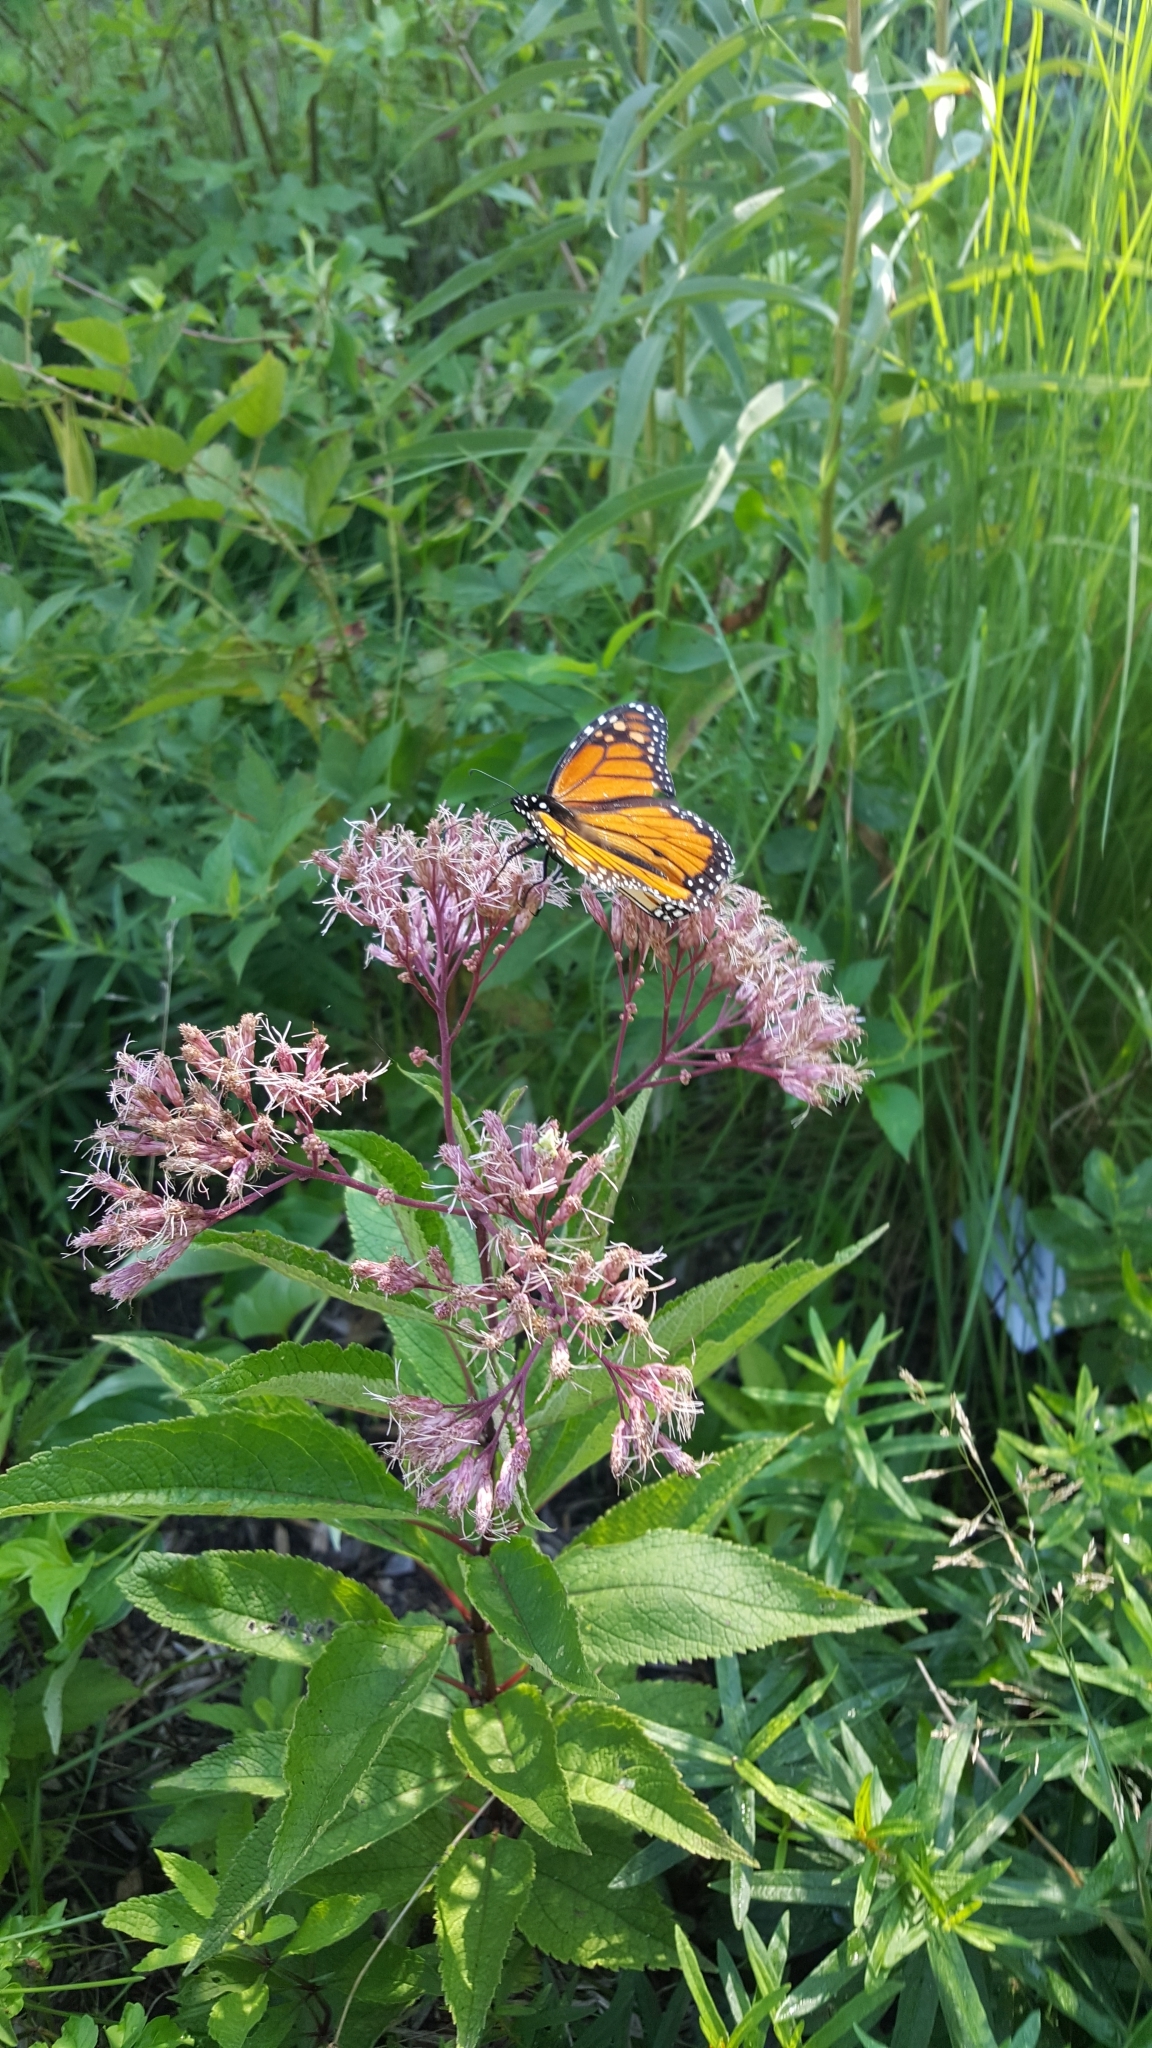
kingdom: Animalia
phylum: Arthropoda
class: Insecta
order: Lepidoptera
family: Nymphalidae
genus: Danaus
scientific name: Danaus plexippus
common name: Monarch
